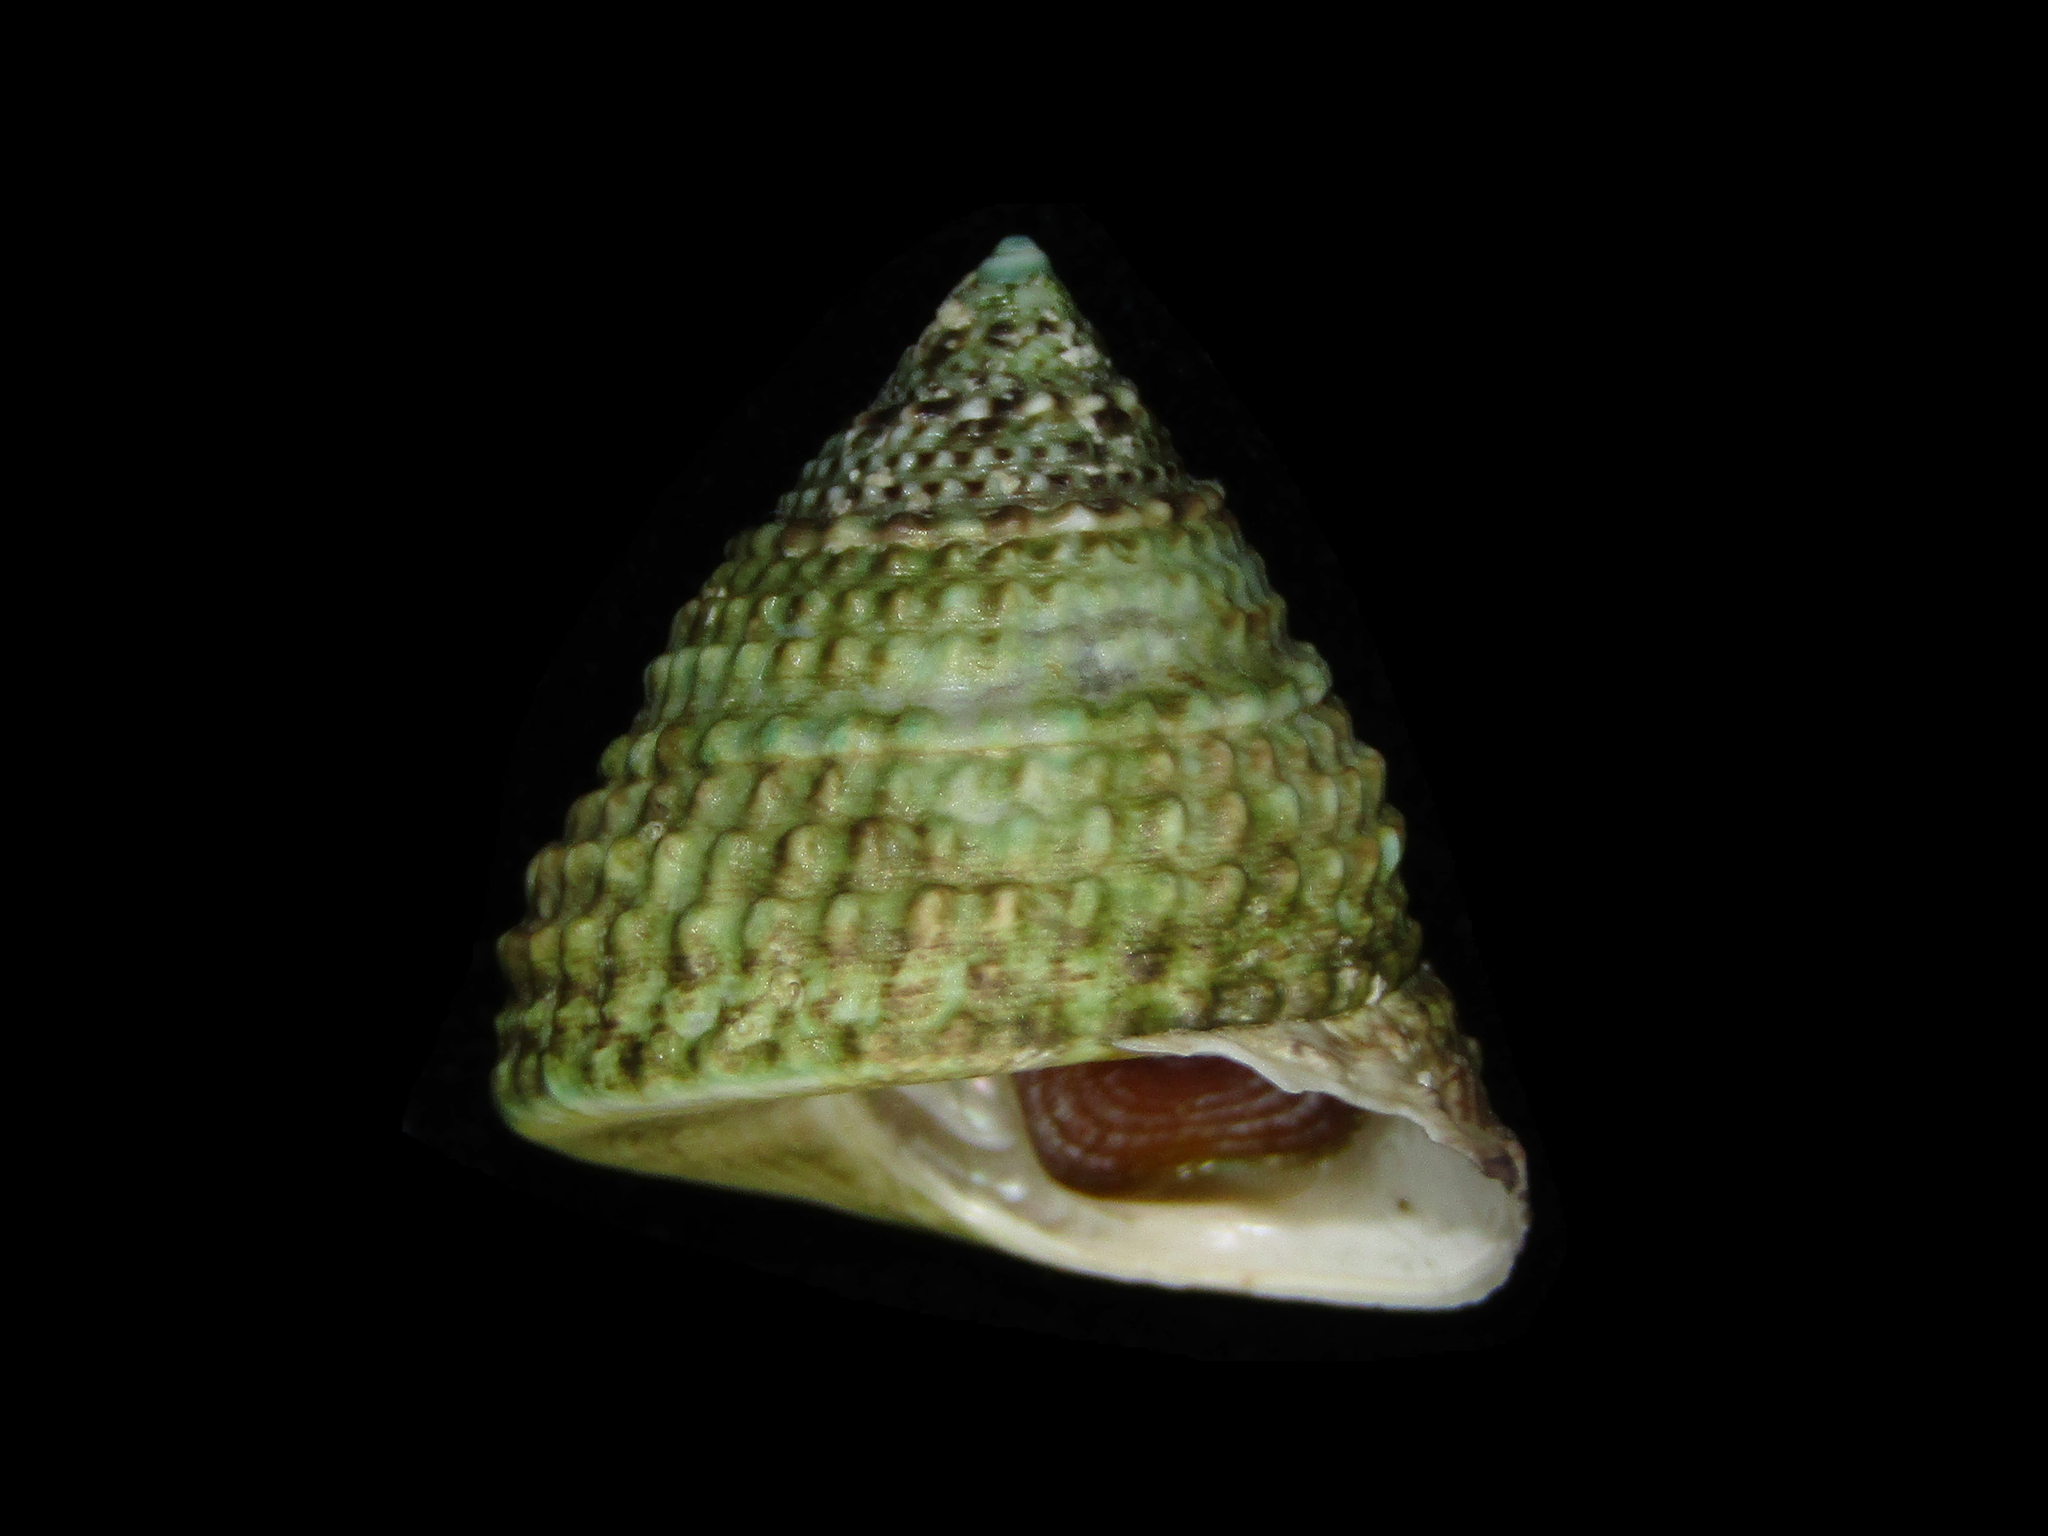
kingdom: Animalia
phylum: Mollusca
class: Gastropoda
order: Trochida
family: Trochidae
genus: Coelotrochus
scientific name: Coelotrochus viridis
